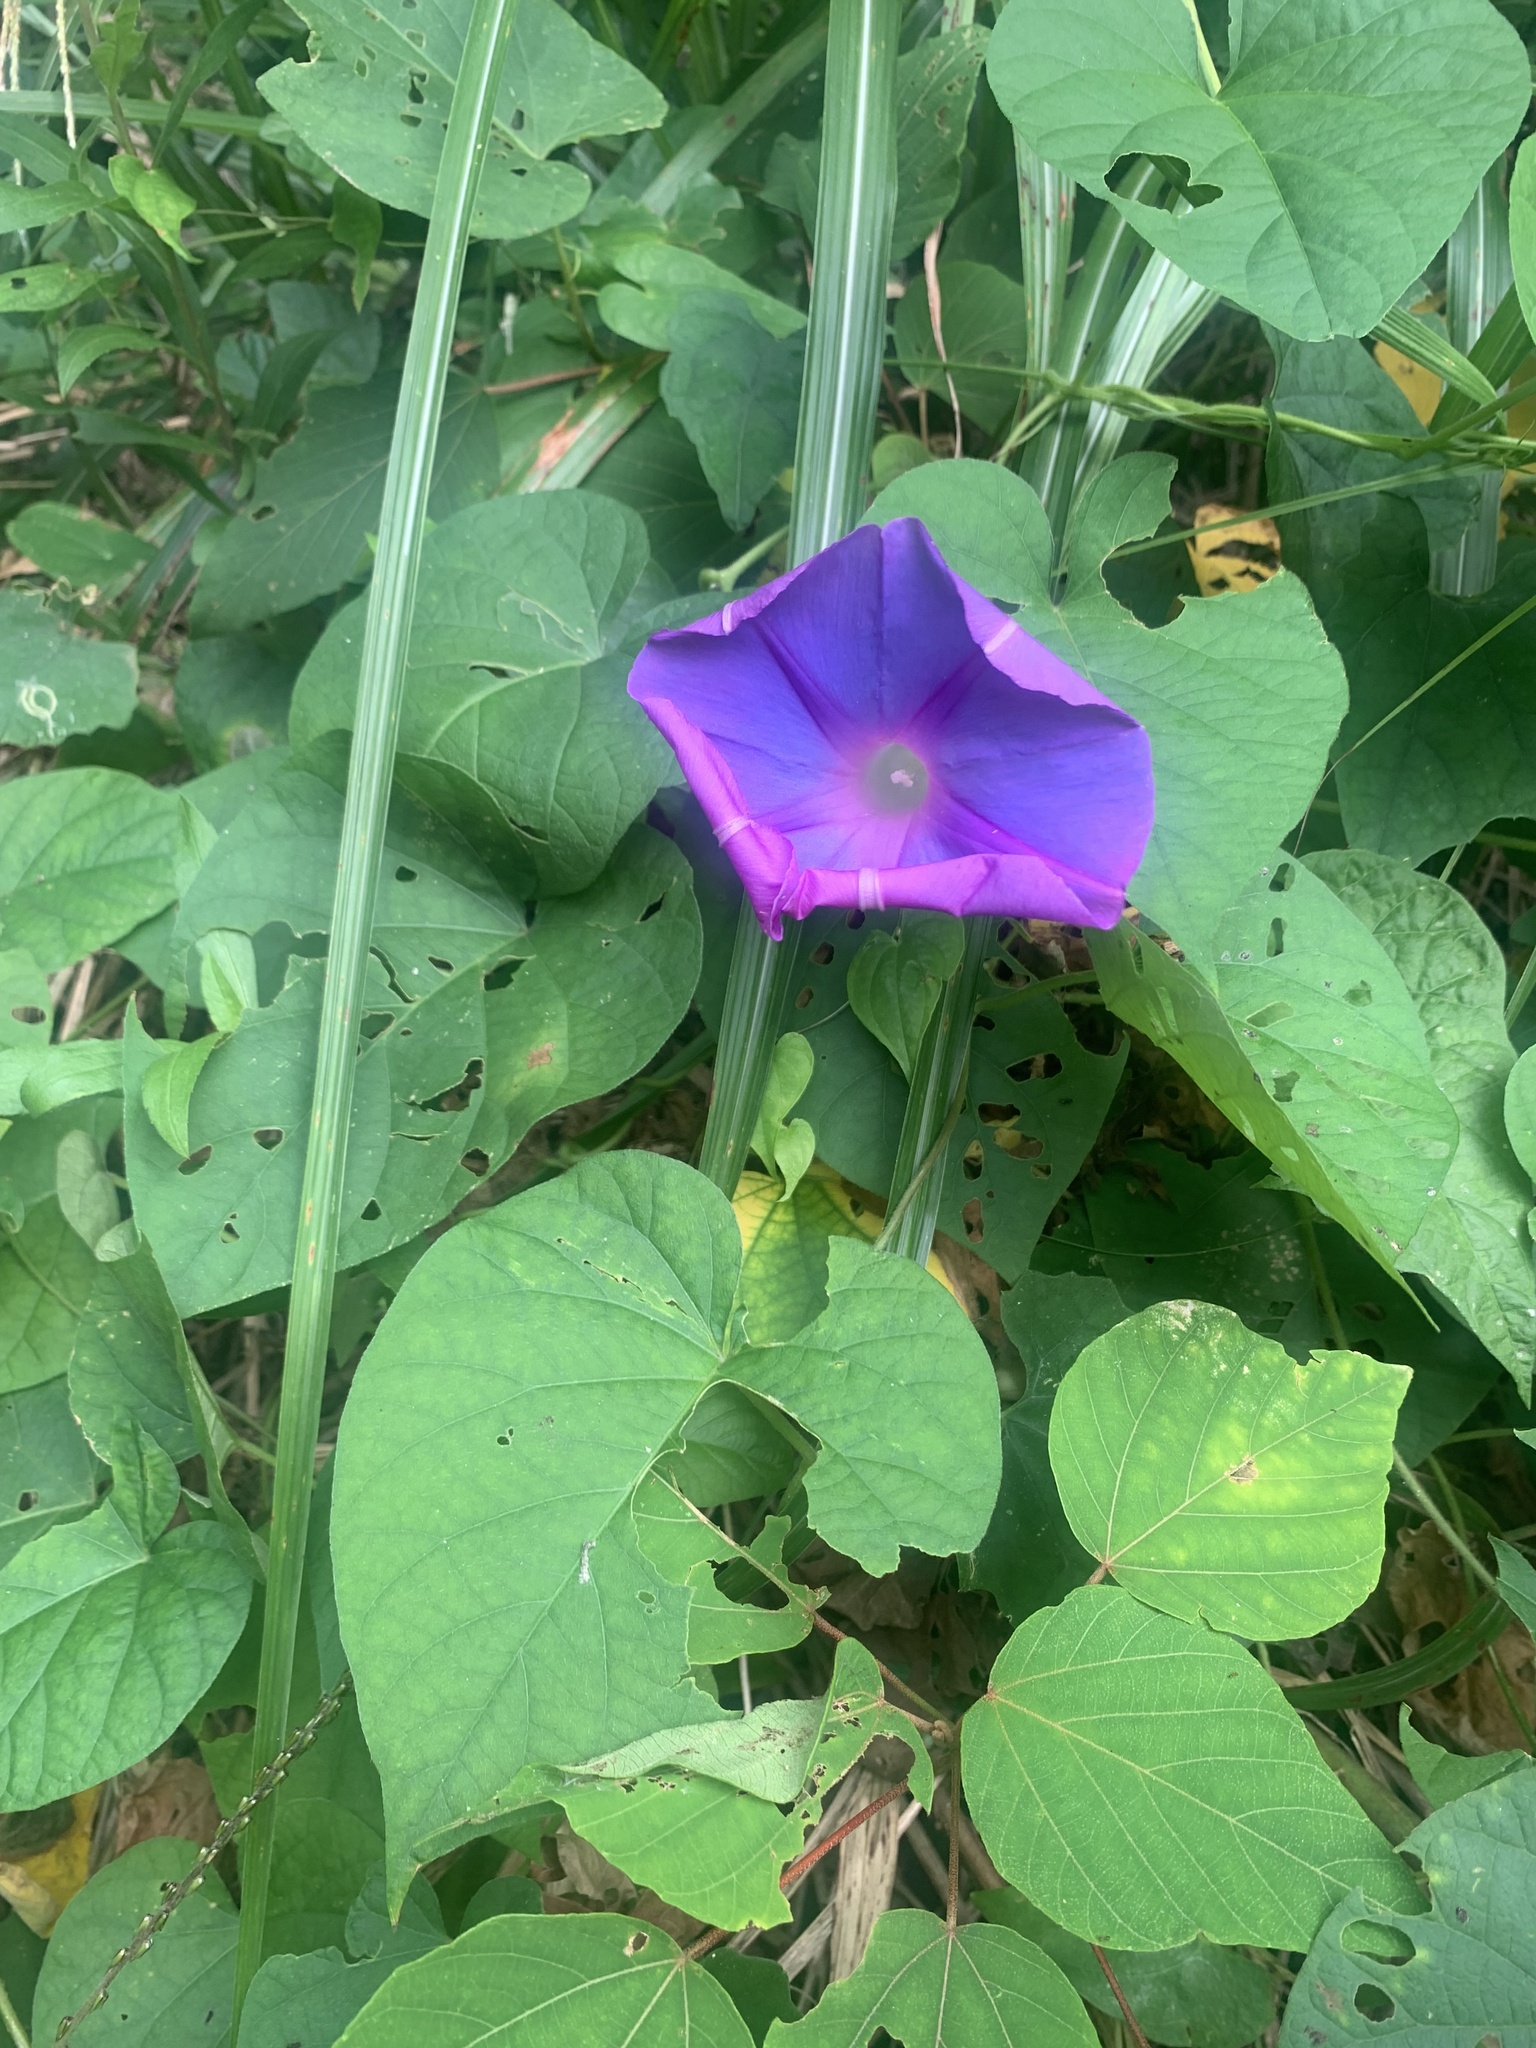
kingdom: Plantae
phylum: Tracheophyta
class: Magnoliopsida
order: Solanales
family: Convolvulaceae
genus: Ipomoea
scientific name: Ipomoea indica
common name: Blue dawnflower
